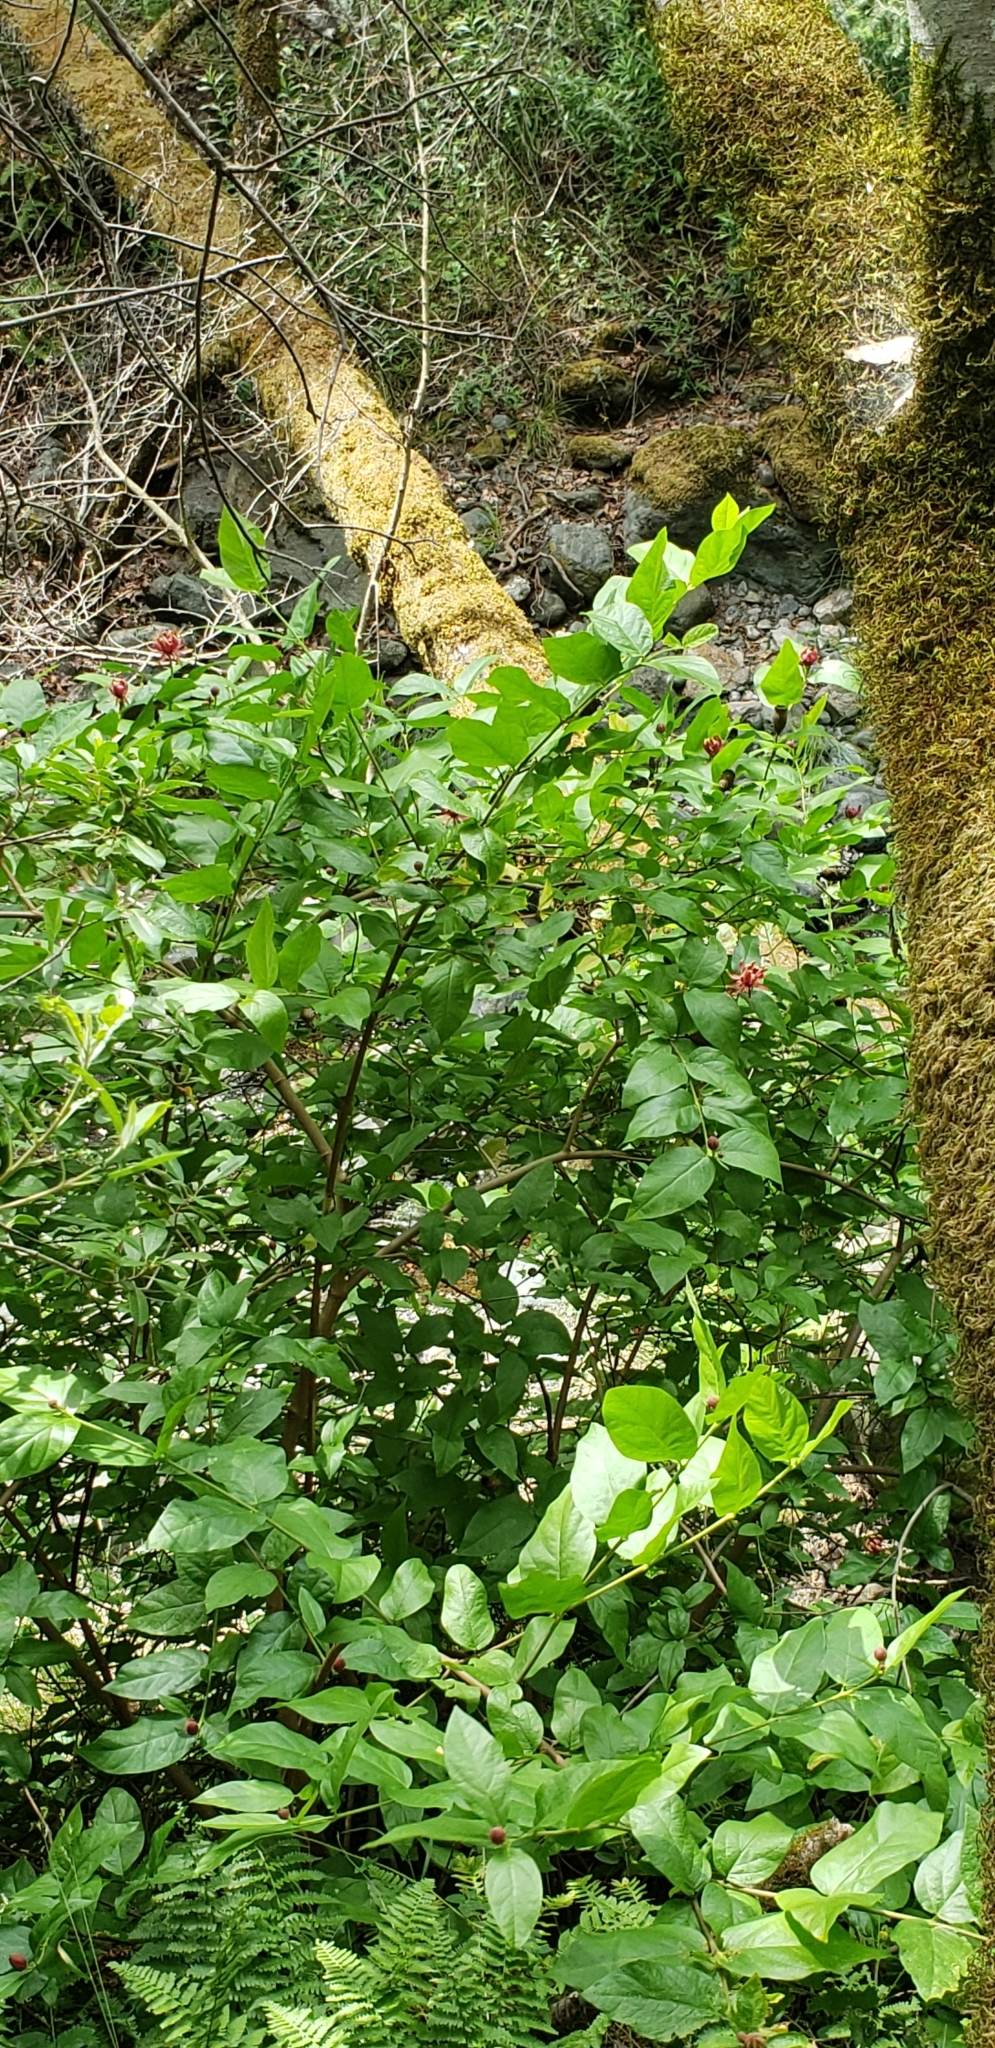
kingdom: Plantae
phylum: Tracheophyta
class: Magnoliopsida
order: Laurales
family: Calycanthaceae
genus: Calycanthus
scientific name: Calycanthus occidentalis
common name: California spicebush
